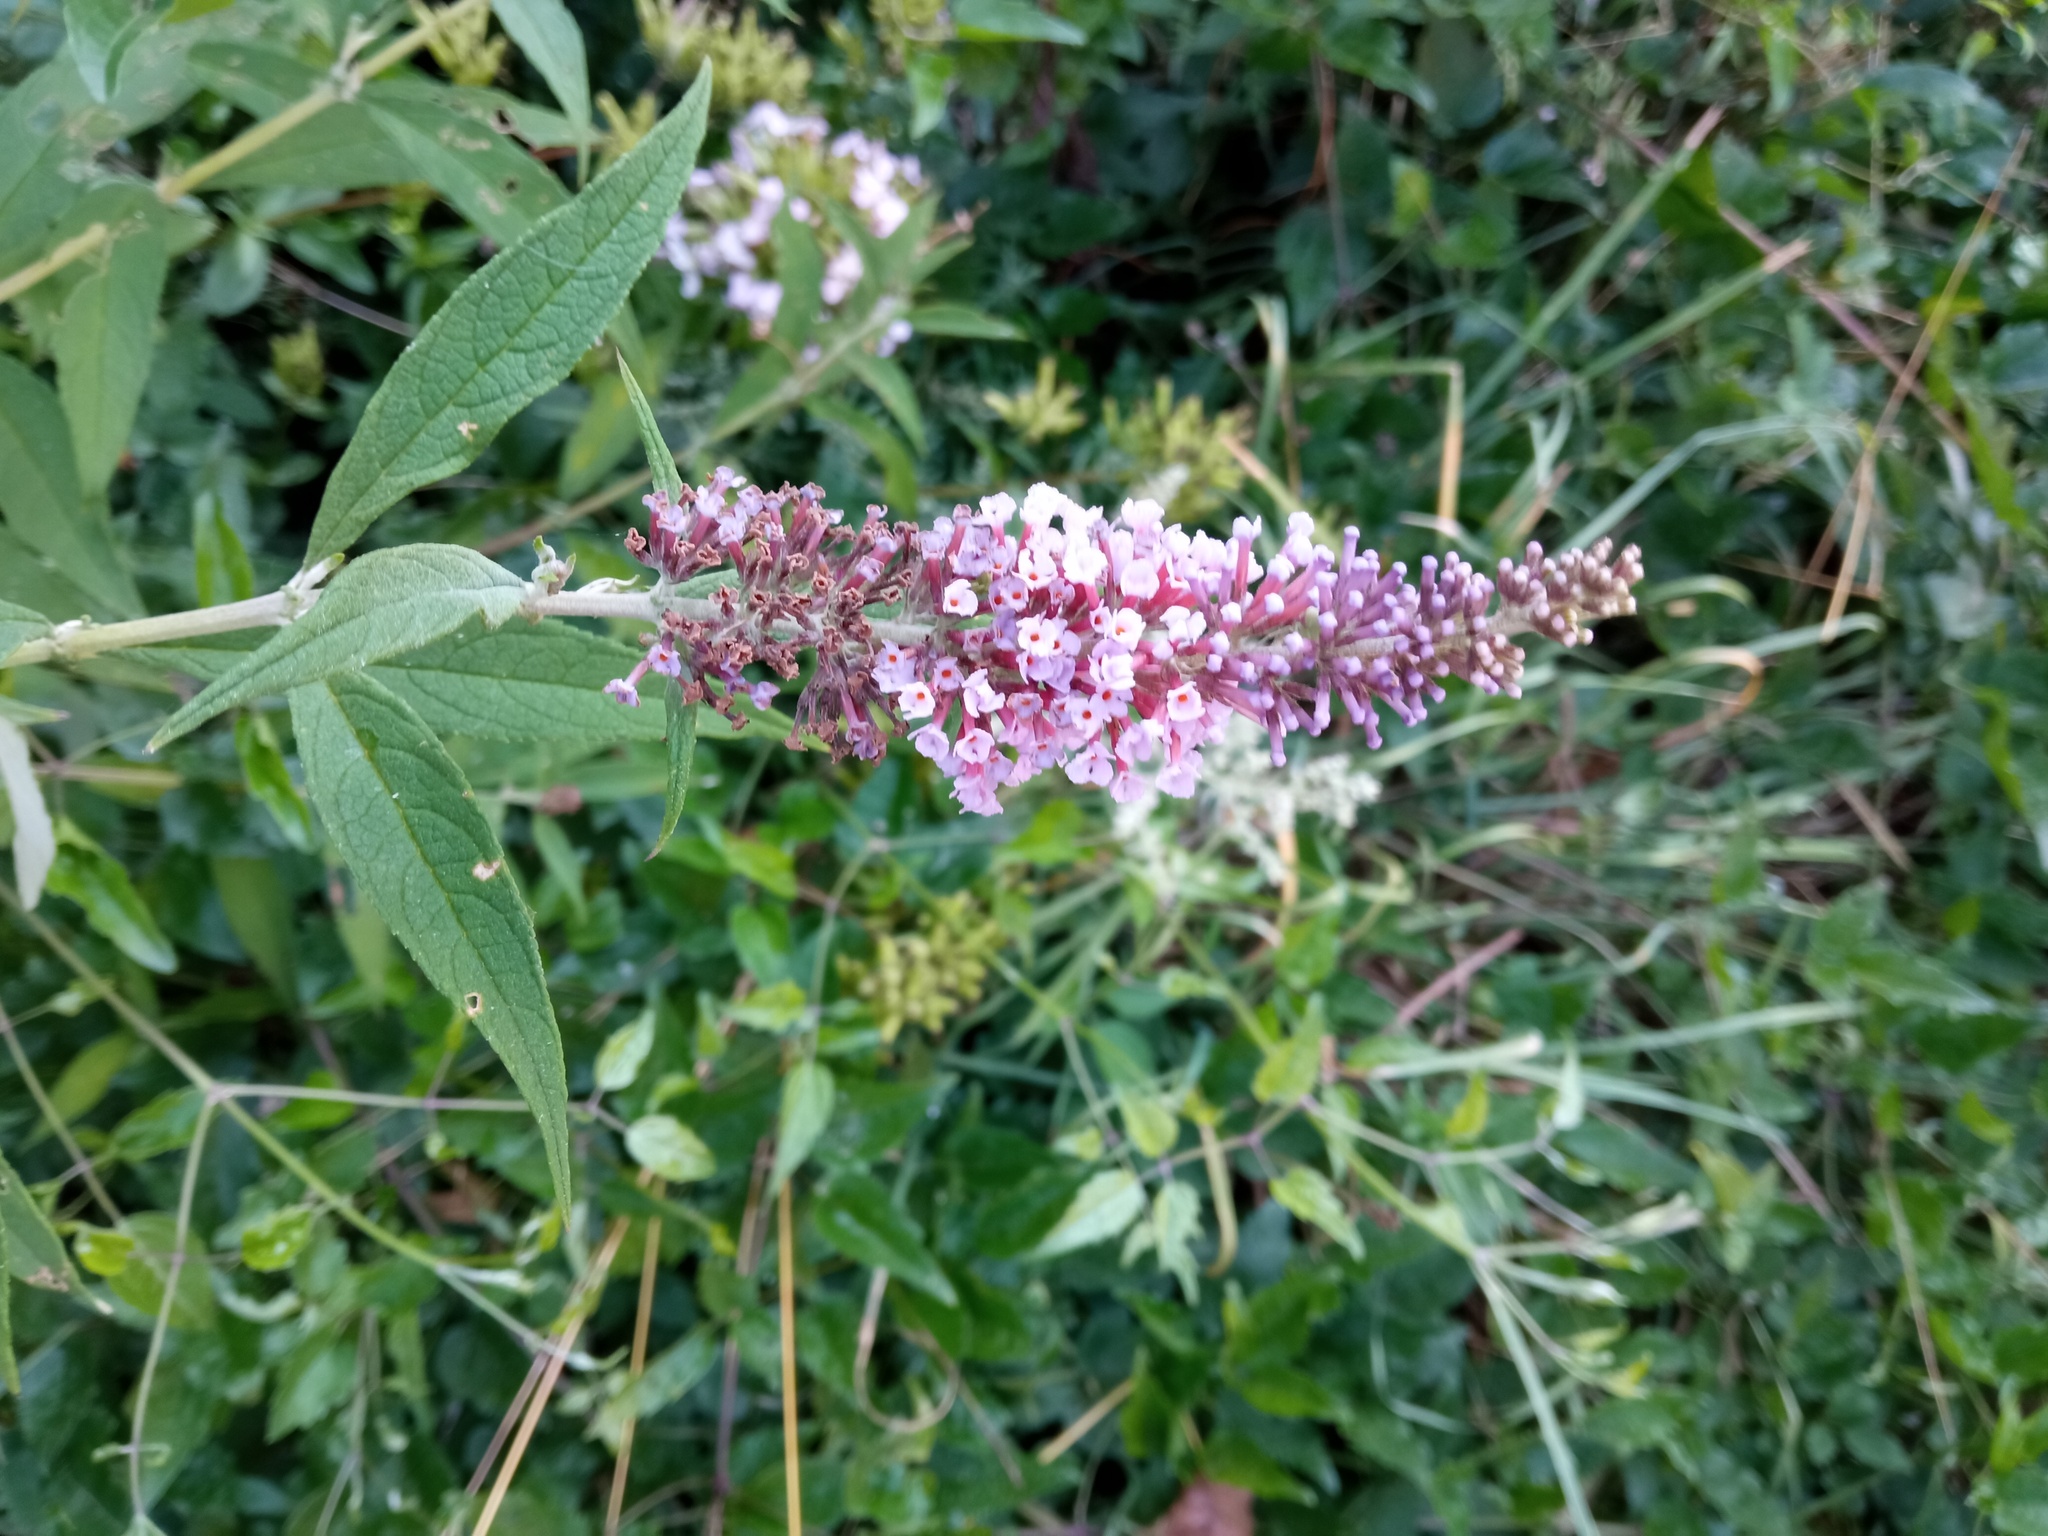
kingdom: Plantae
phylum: Tracheophyta
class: Magnoliopsida
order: Lamiales
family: Scrophulariaceae
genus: Buddleja
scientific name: Buddleja davidii
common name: Butterfly-bush
